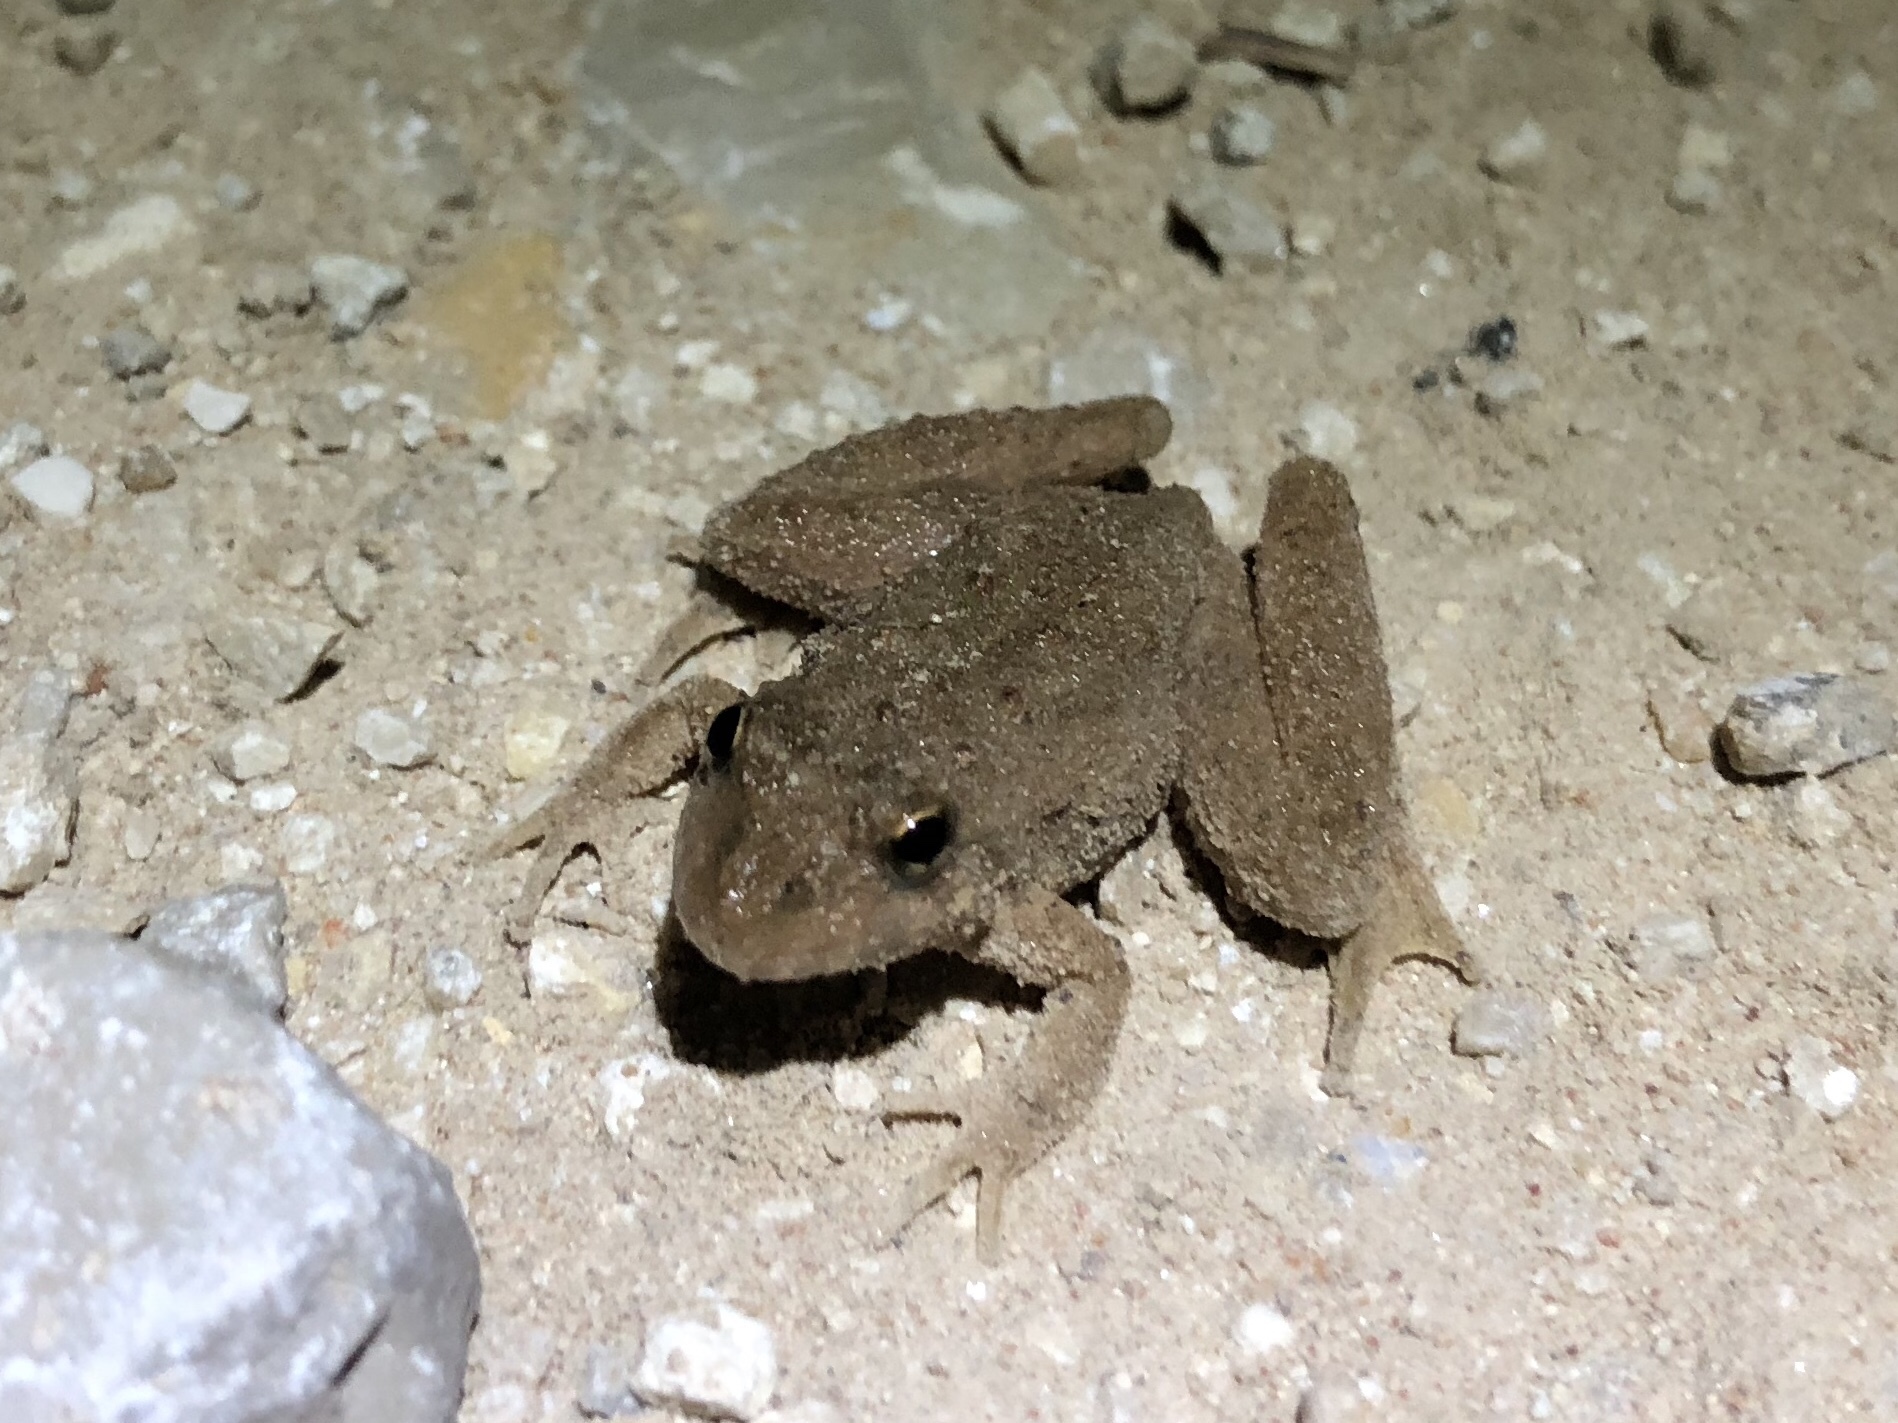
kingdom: Animalia
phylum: Chordata
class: Amphibia
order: Anura
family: Hylidae
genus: Acris
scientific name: Acris blanchardi
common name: Blanchard's cricket frog
